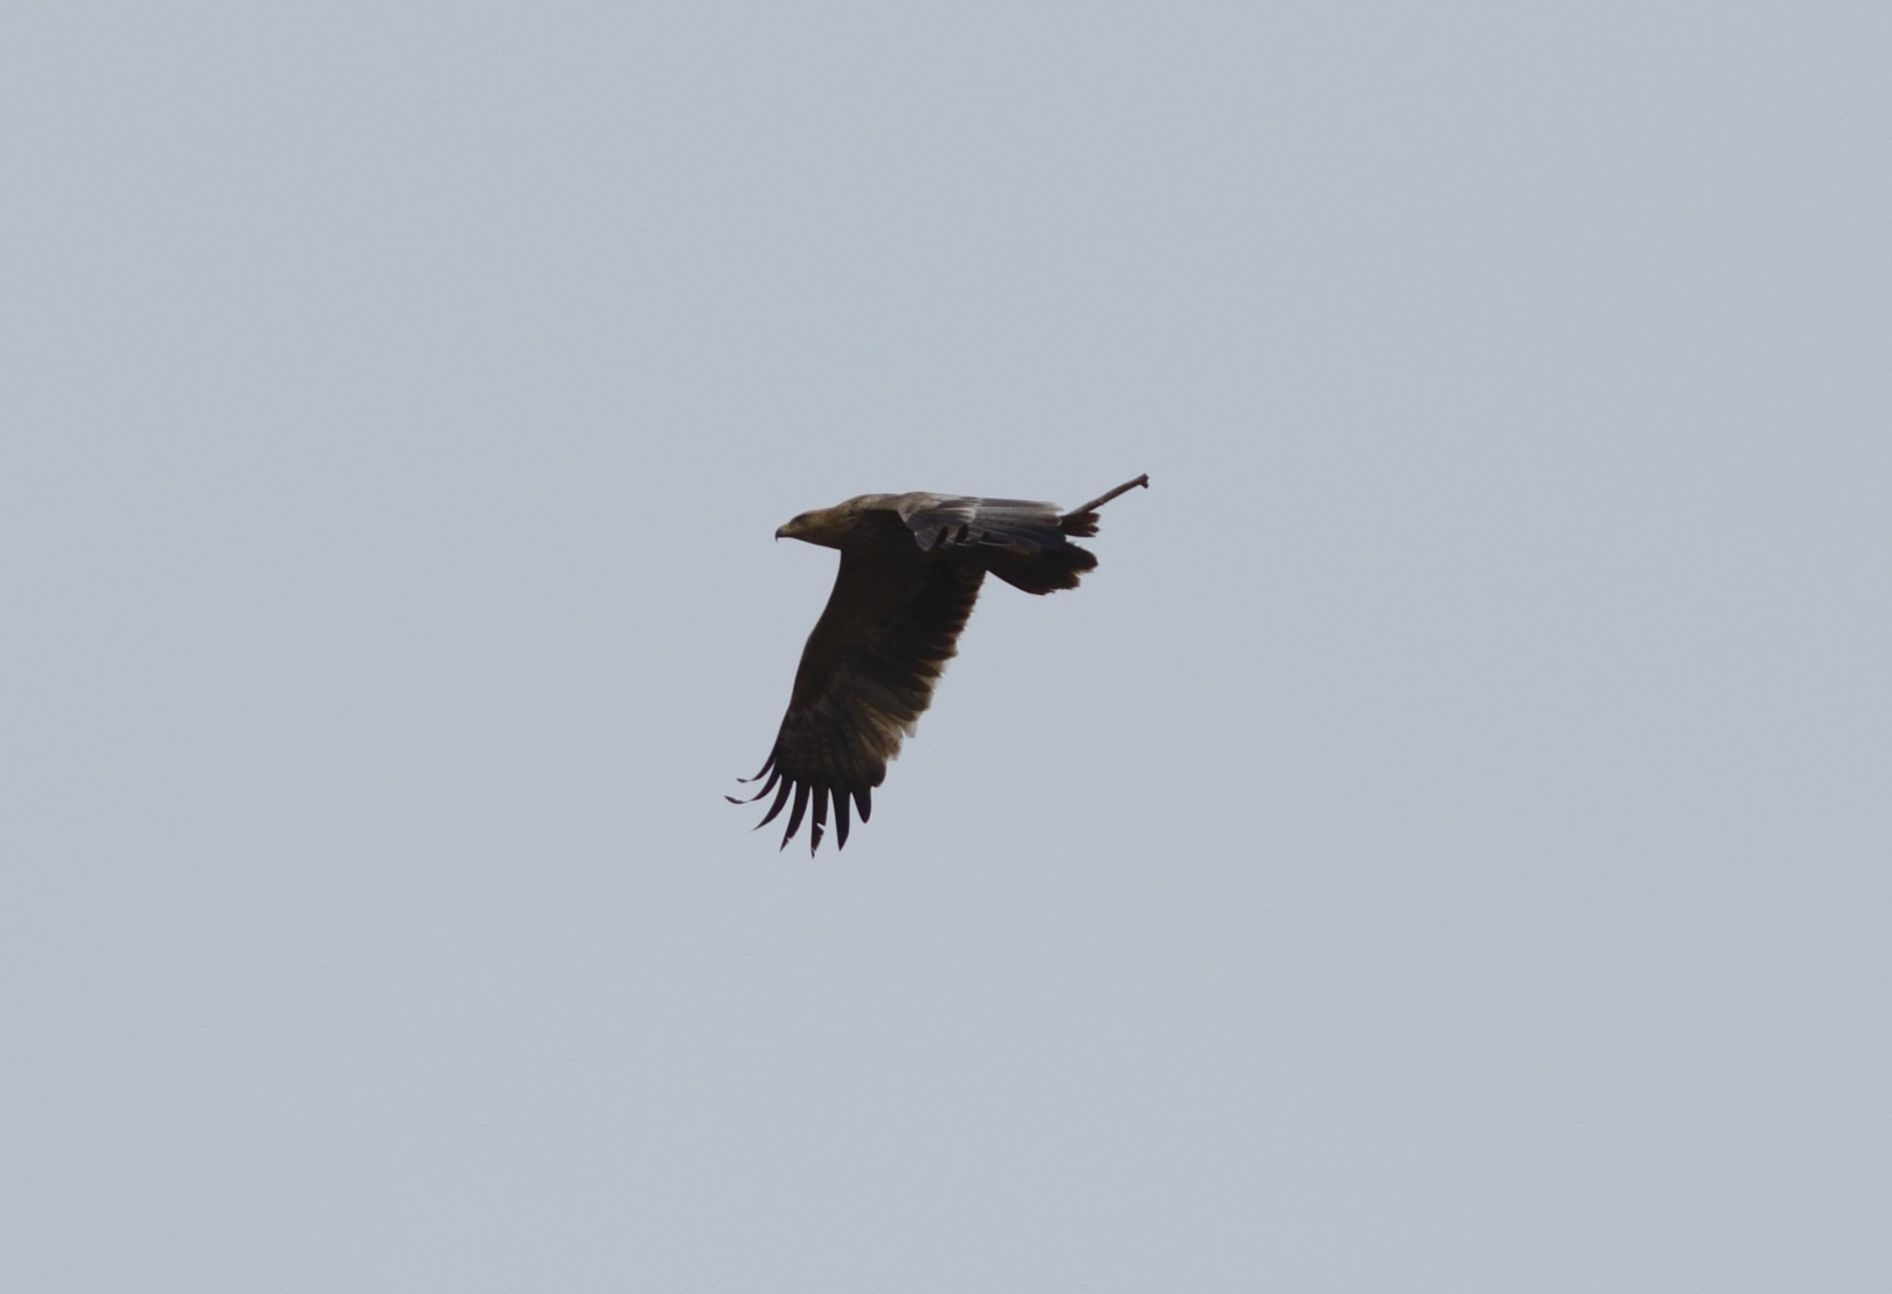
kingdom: Animalia
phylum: Chordata
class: Aves
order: Accipitriformes
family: Accipitridae
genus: Aquila
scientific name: Aquila heliaca
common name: Eastern imperial eagle
